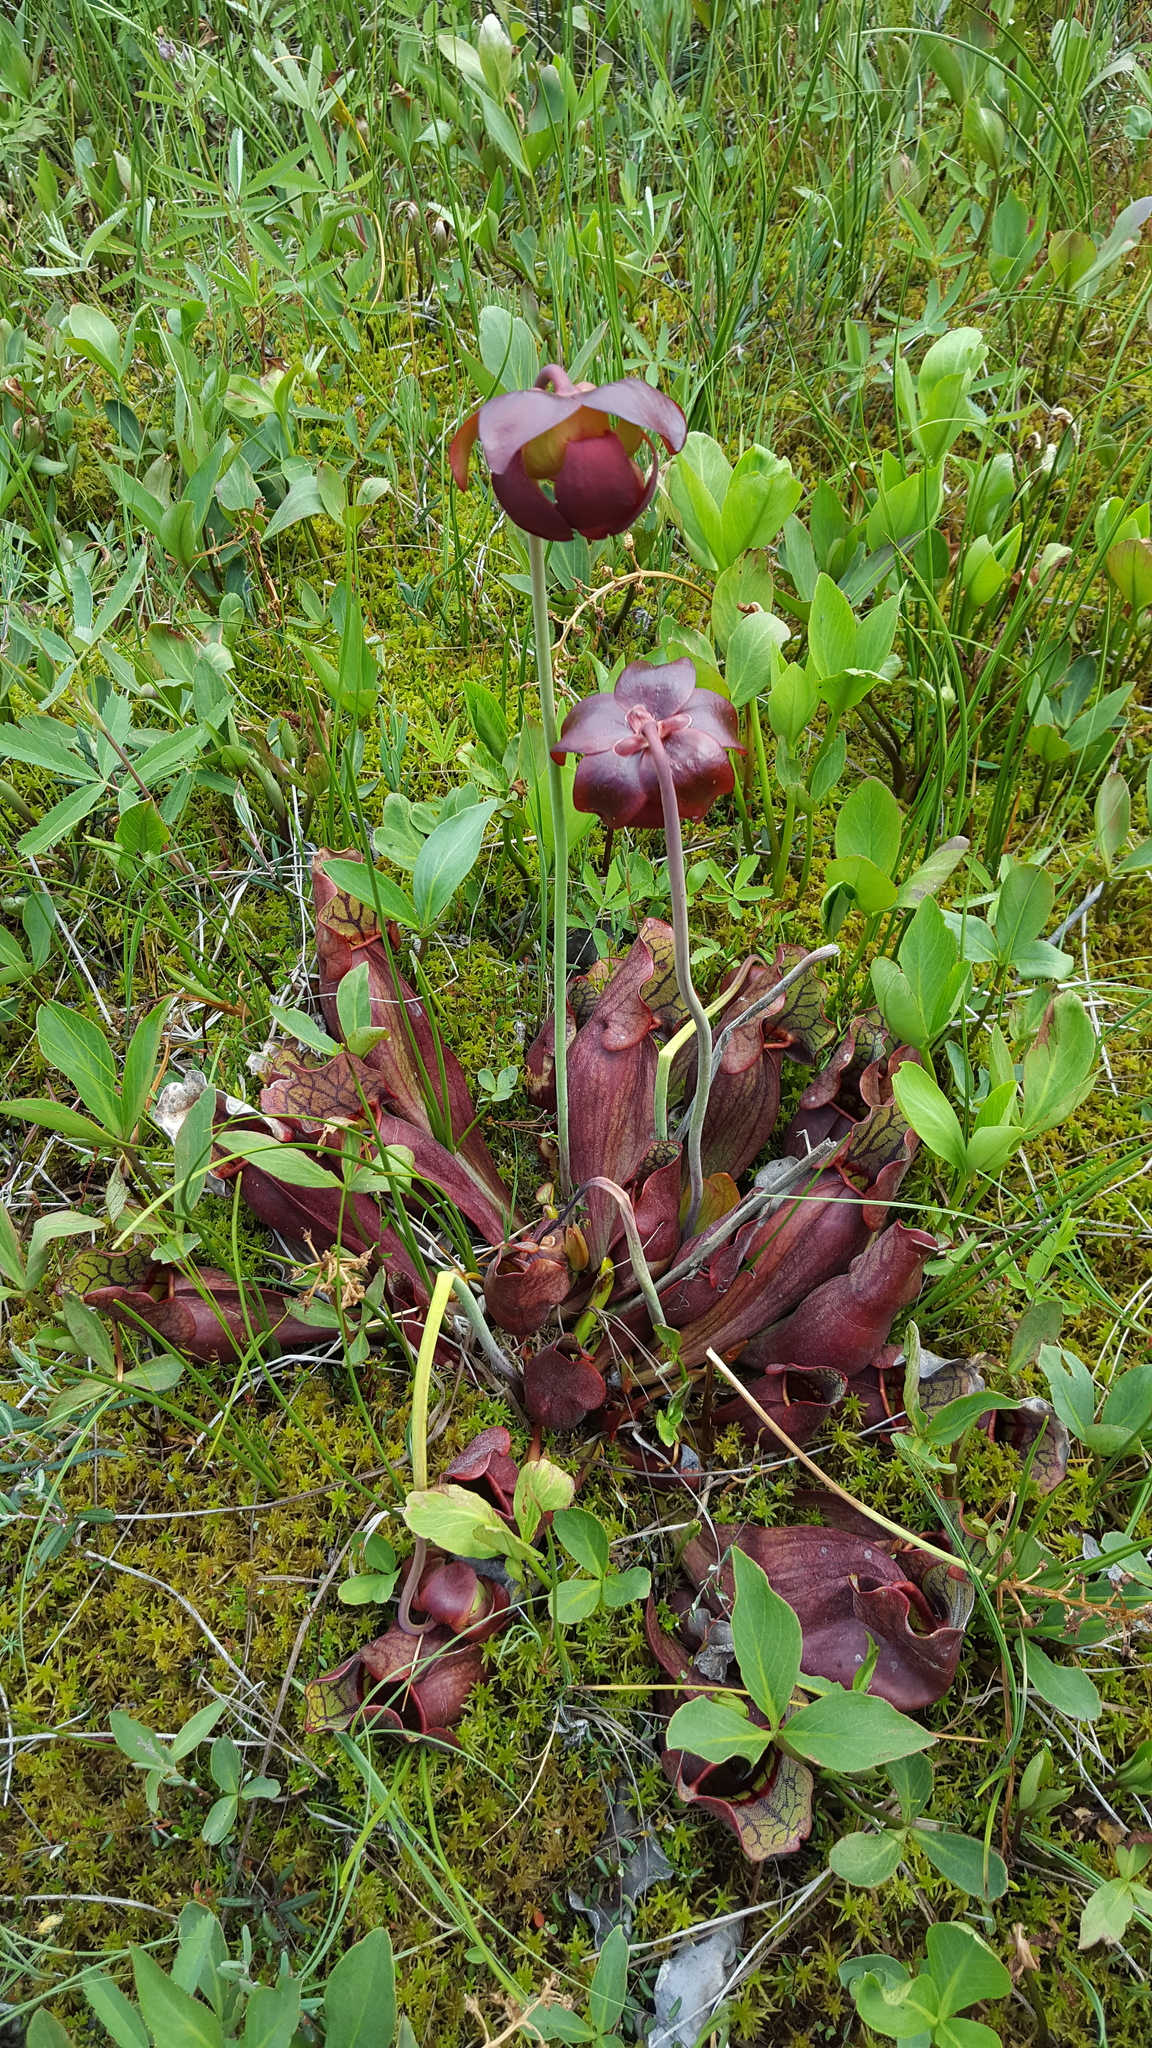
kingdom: Plantae
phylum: Tracheophyta
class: Magnoliopsida
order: Ericales
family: Sarraceniaceae
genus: Sarracenia
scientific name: Sarracenia purpurea
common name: Pitcherplant
